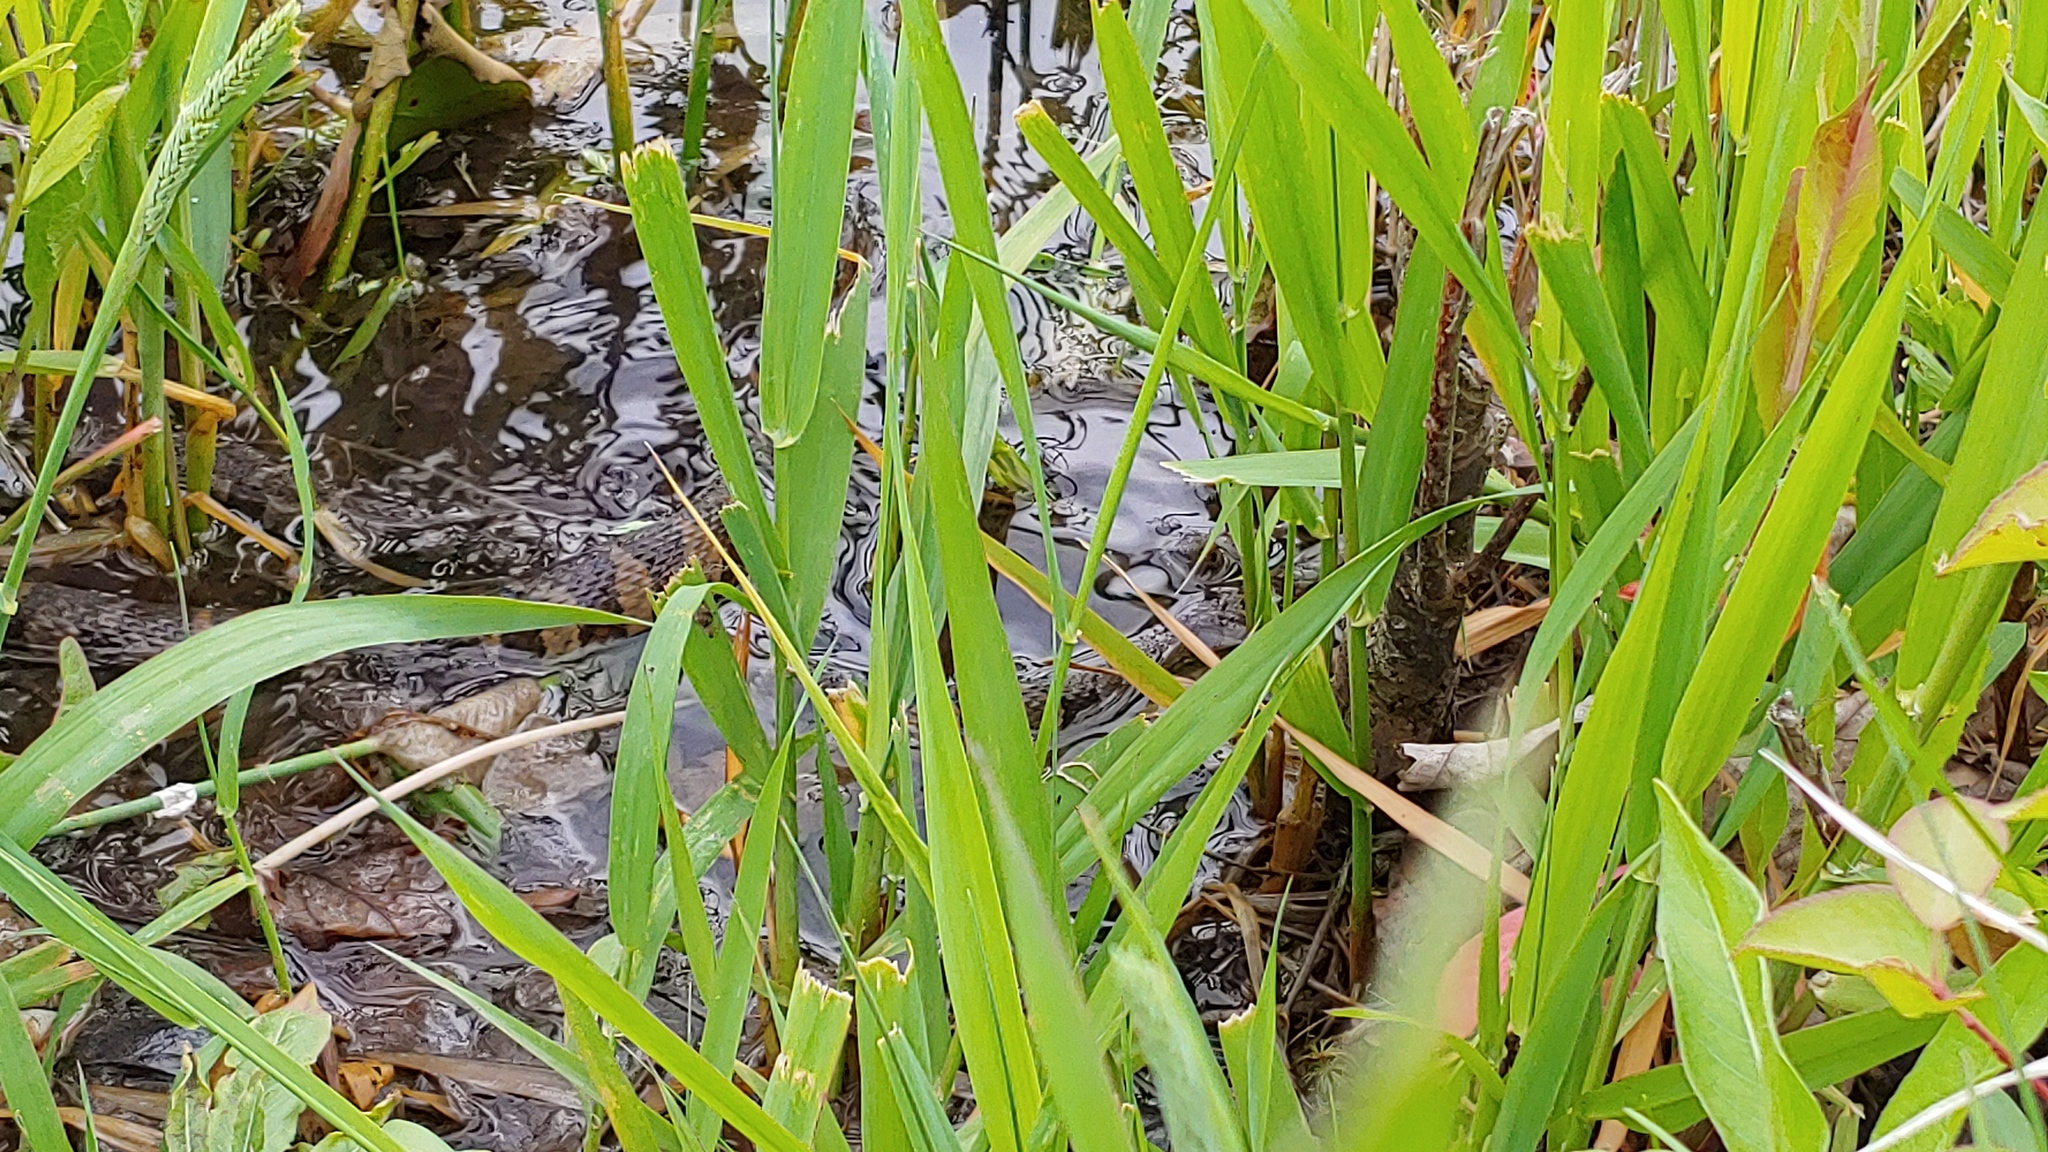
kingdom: Animalia
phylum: Chordata
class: Squamata
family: Colubridae
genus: Nerodia
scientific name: Nerodia sipedon
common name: Northern water snake
